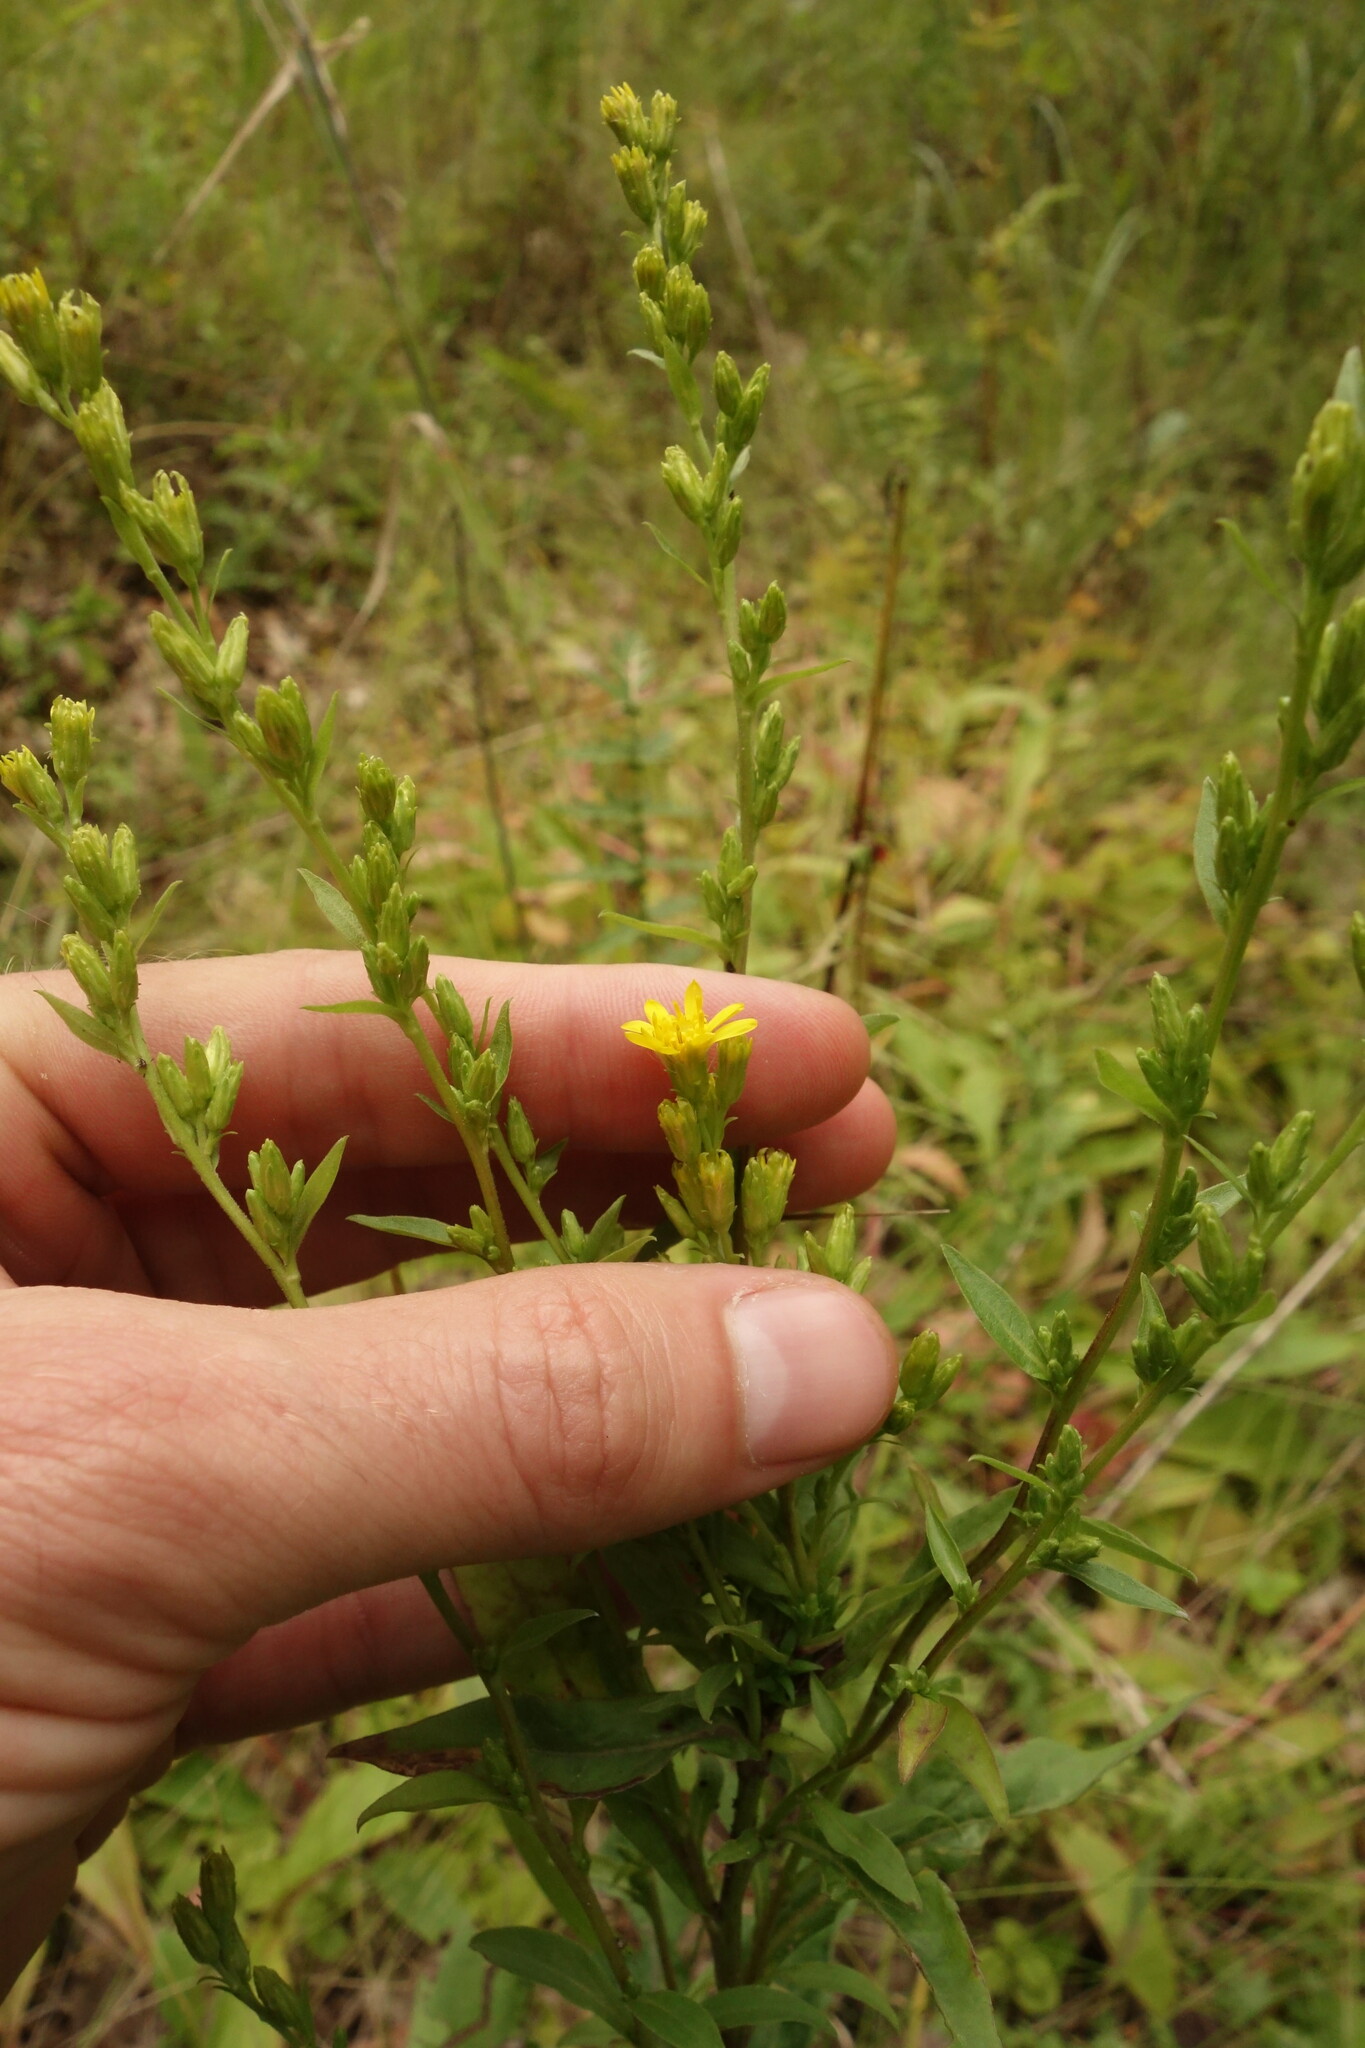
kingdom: Plantae
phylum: Tracheophyta
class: Magnoliopsida
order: Asterales
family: Asteraceae
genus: Solidago
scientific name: Solidago virgaurea
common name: Goldenrod
